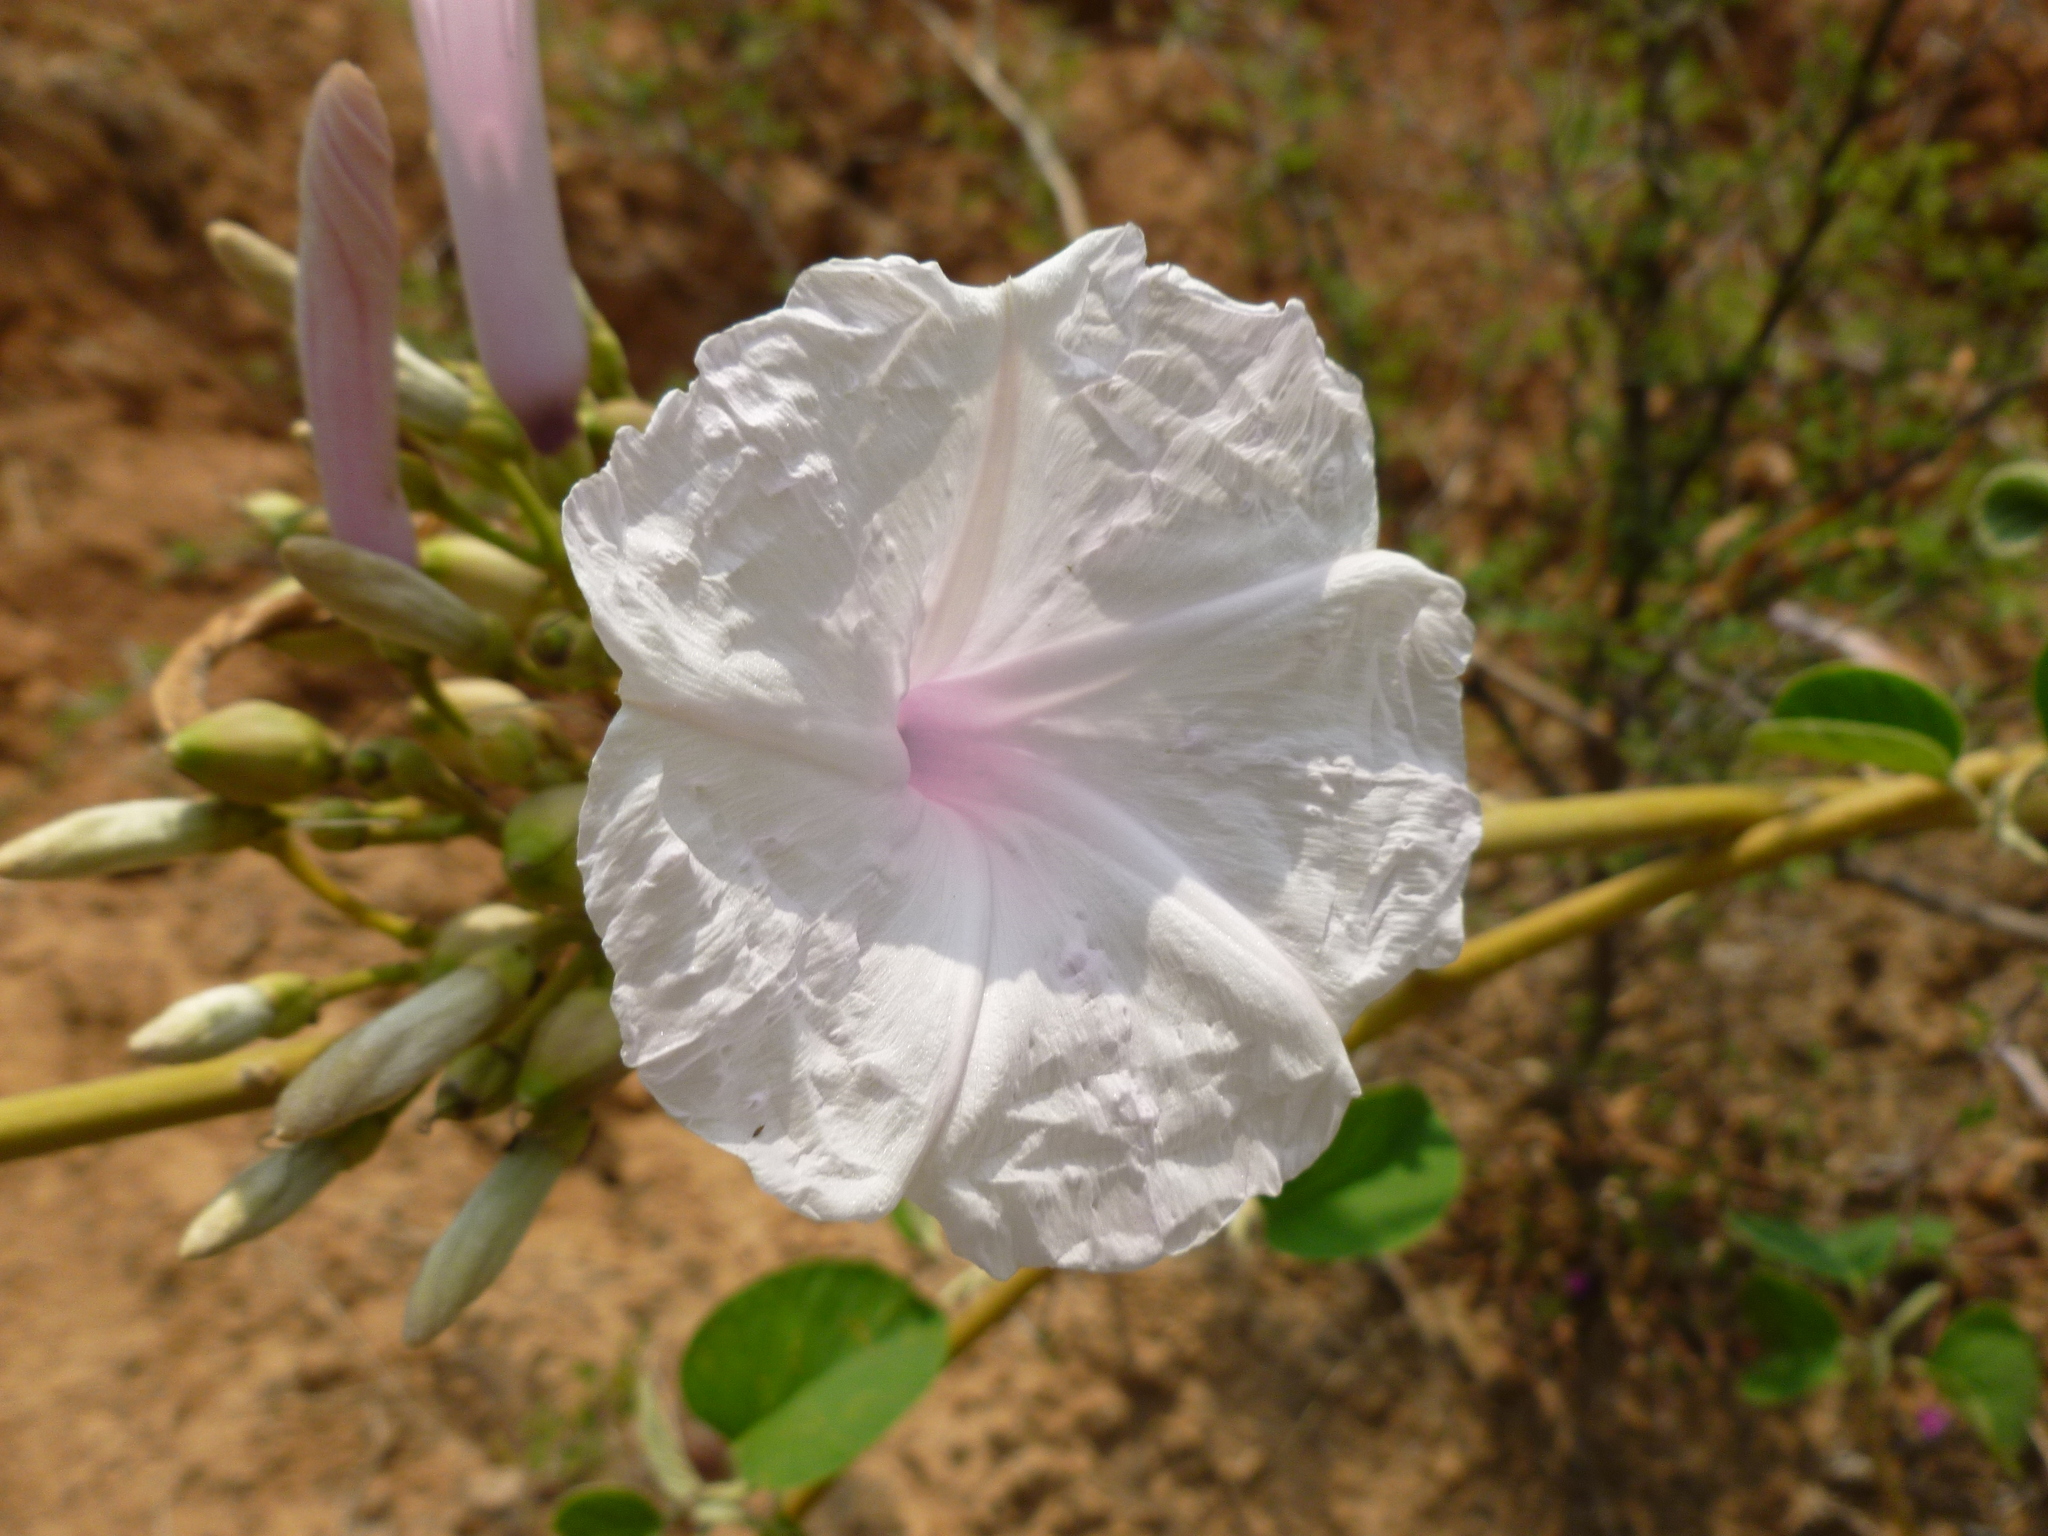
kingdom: Plantae
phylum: Tracheophyta
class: Magnoliopsida
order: Solanales
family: Convolvulaceae
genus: Ipomoea
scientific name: Ipomoea carnea
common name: Morning-glory
